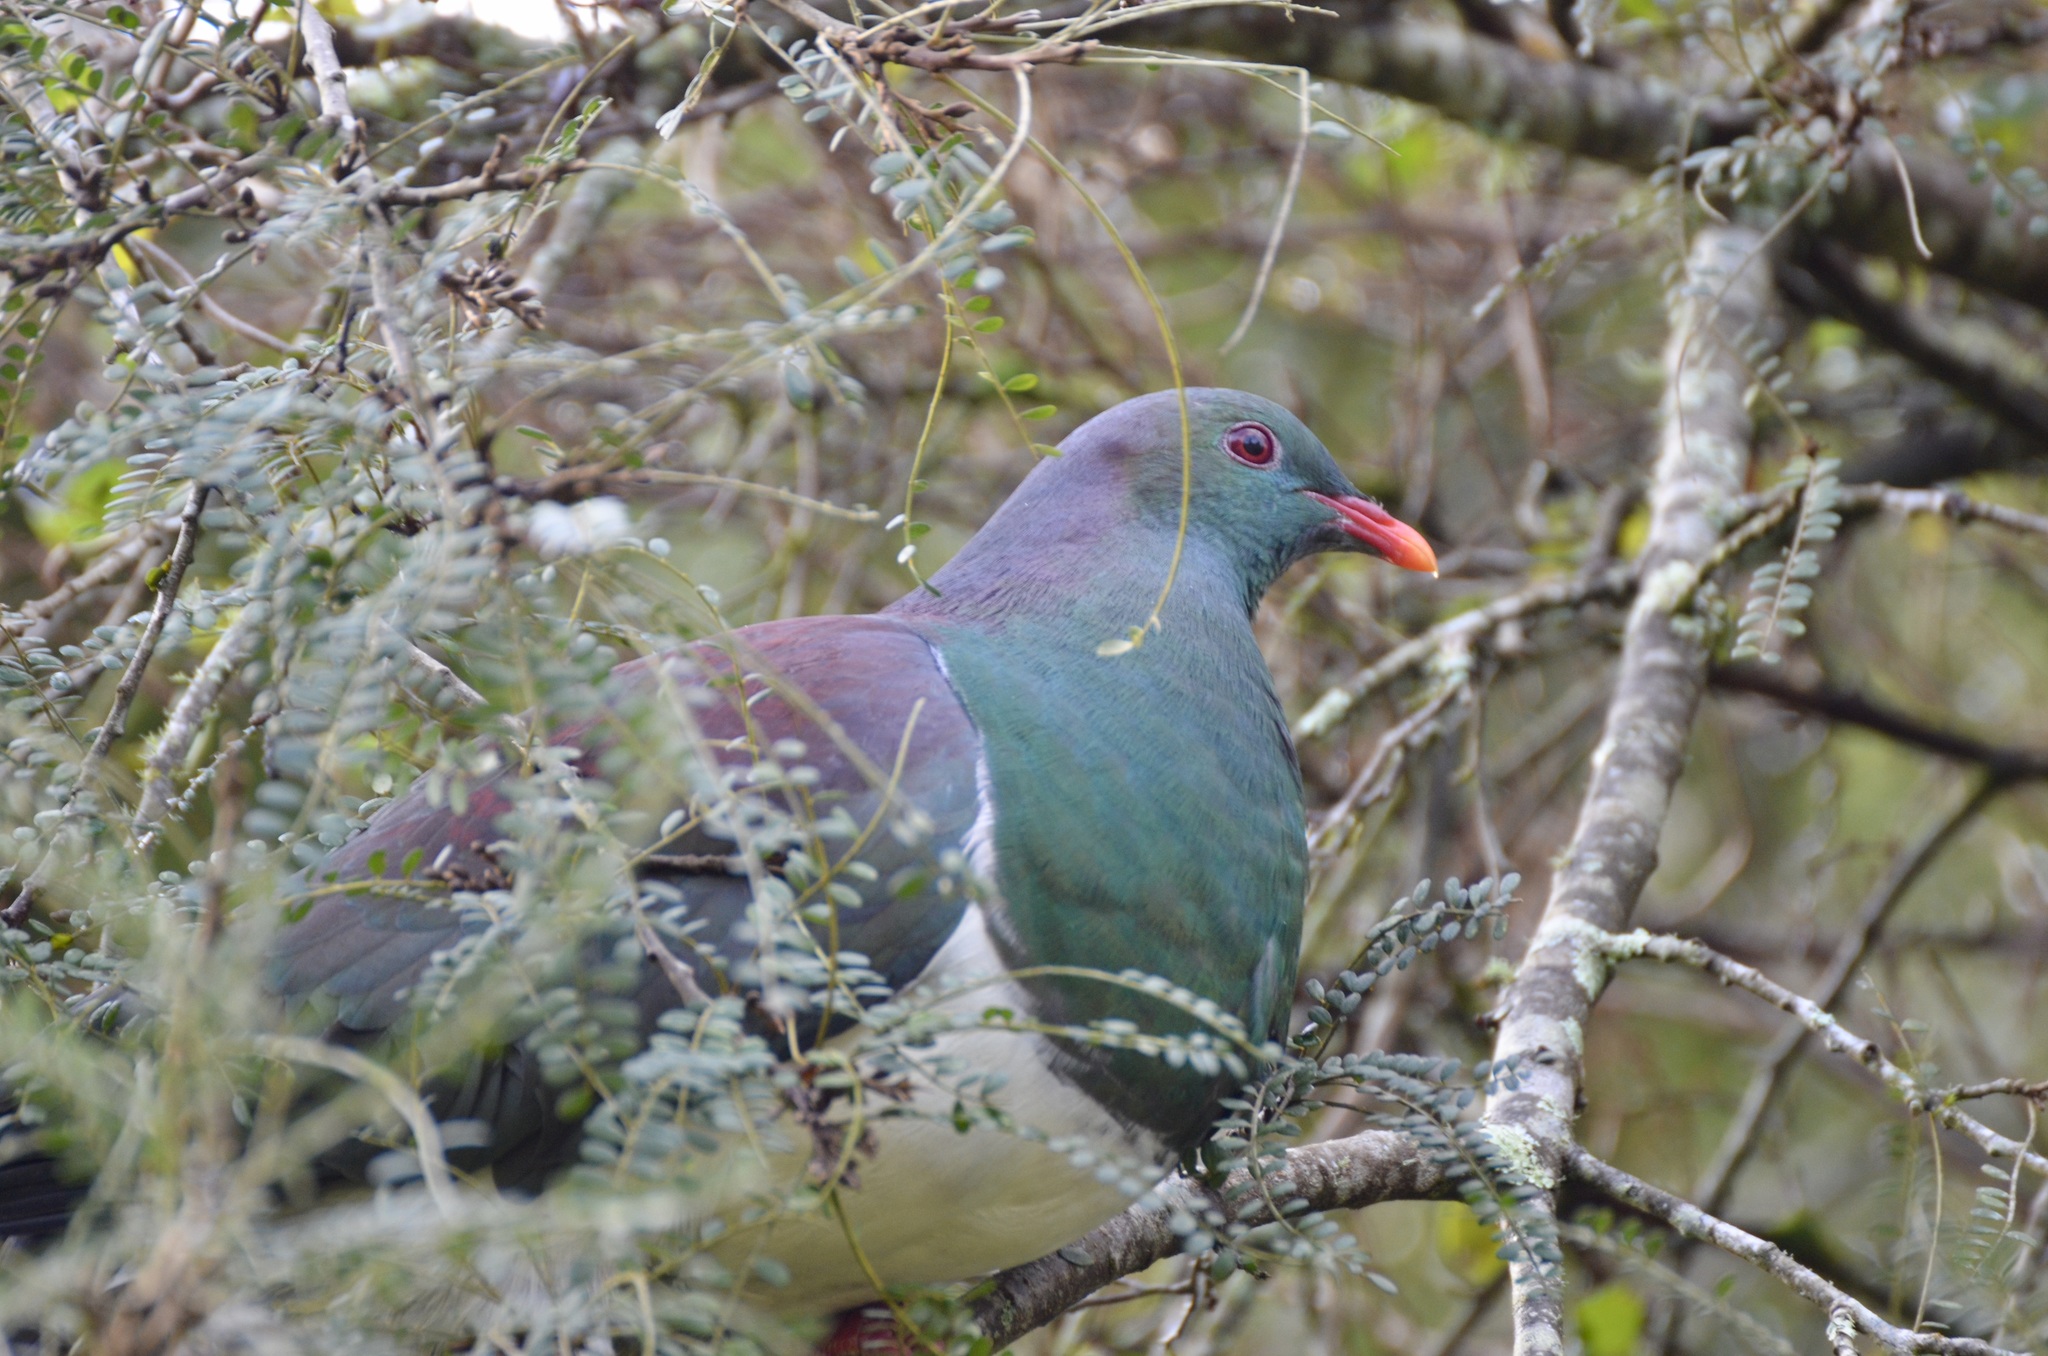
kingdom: Animalia
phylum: Chordata
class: Aves
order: Columbiformes
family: Columbidae
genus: Hemiphaga
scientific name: Hemiphaga novaeseelandiae
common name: New zealand pigeon
